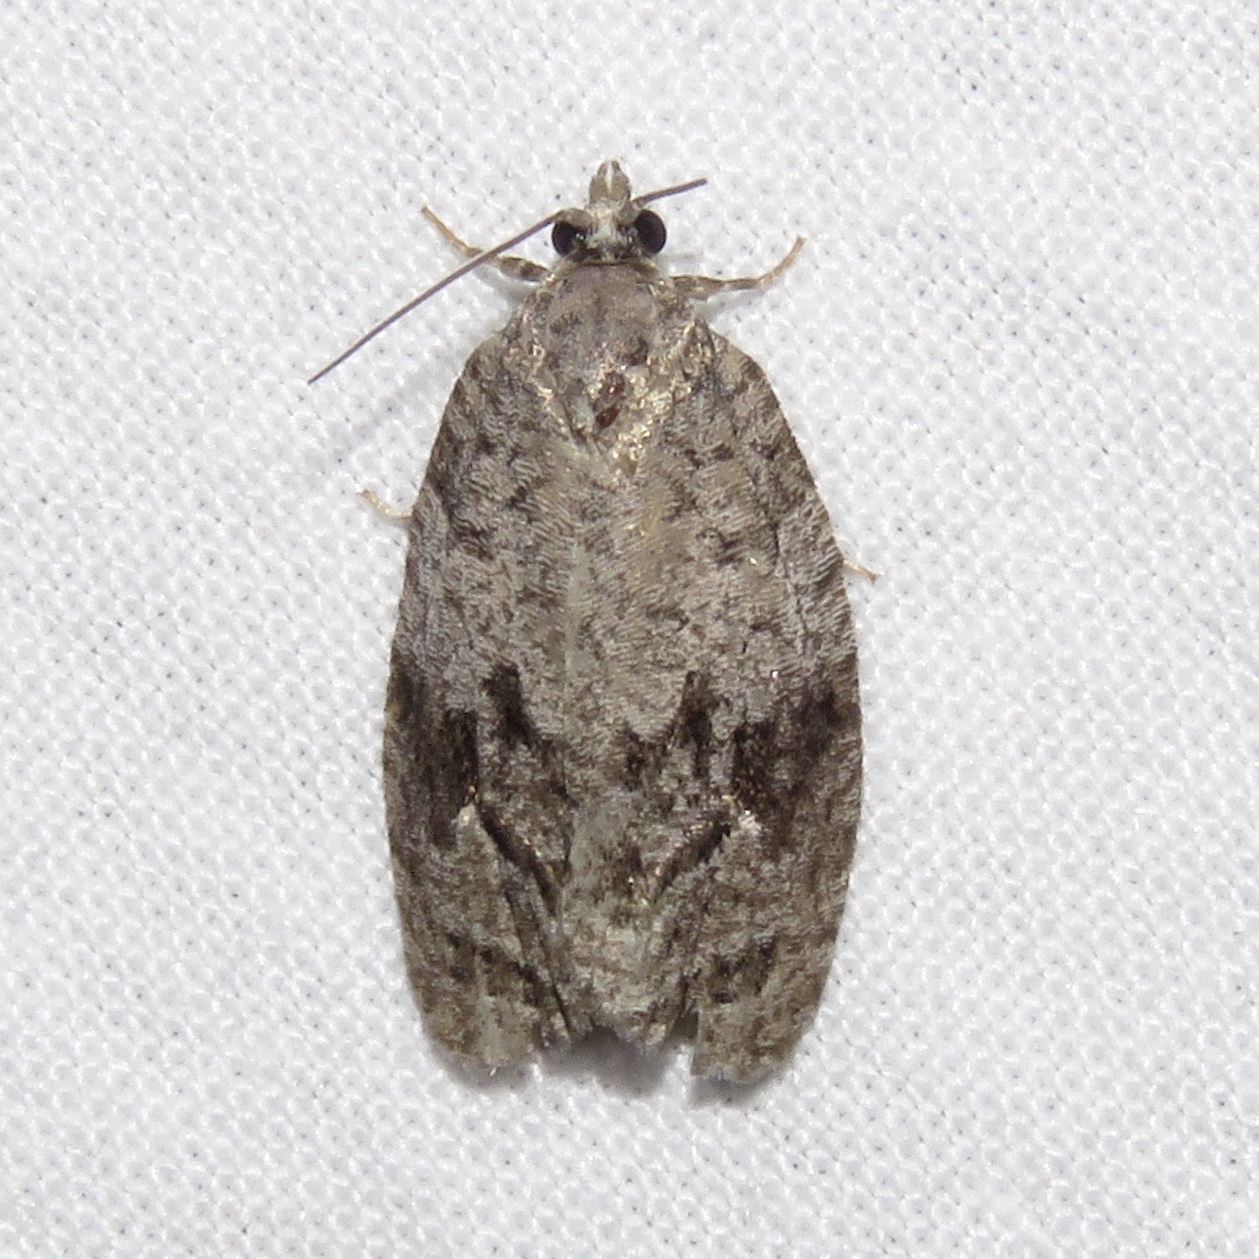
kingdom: Animalia
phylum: Arthropoda
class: Insecta
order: Lepidoptera
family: Tortricidae
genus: Apotomis
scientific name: Apotomis removana
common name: Green aspen leafroller
